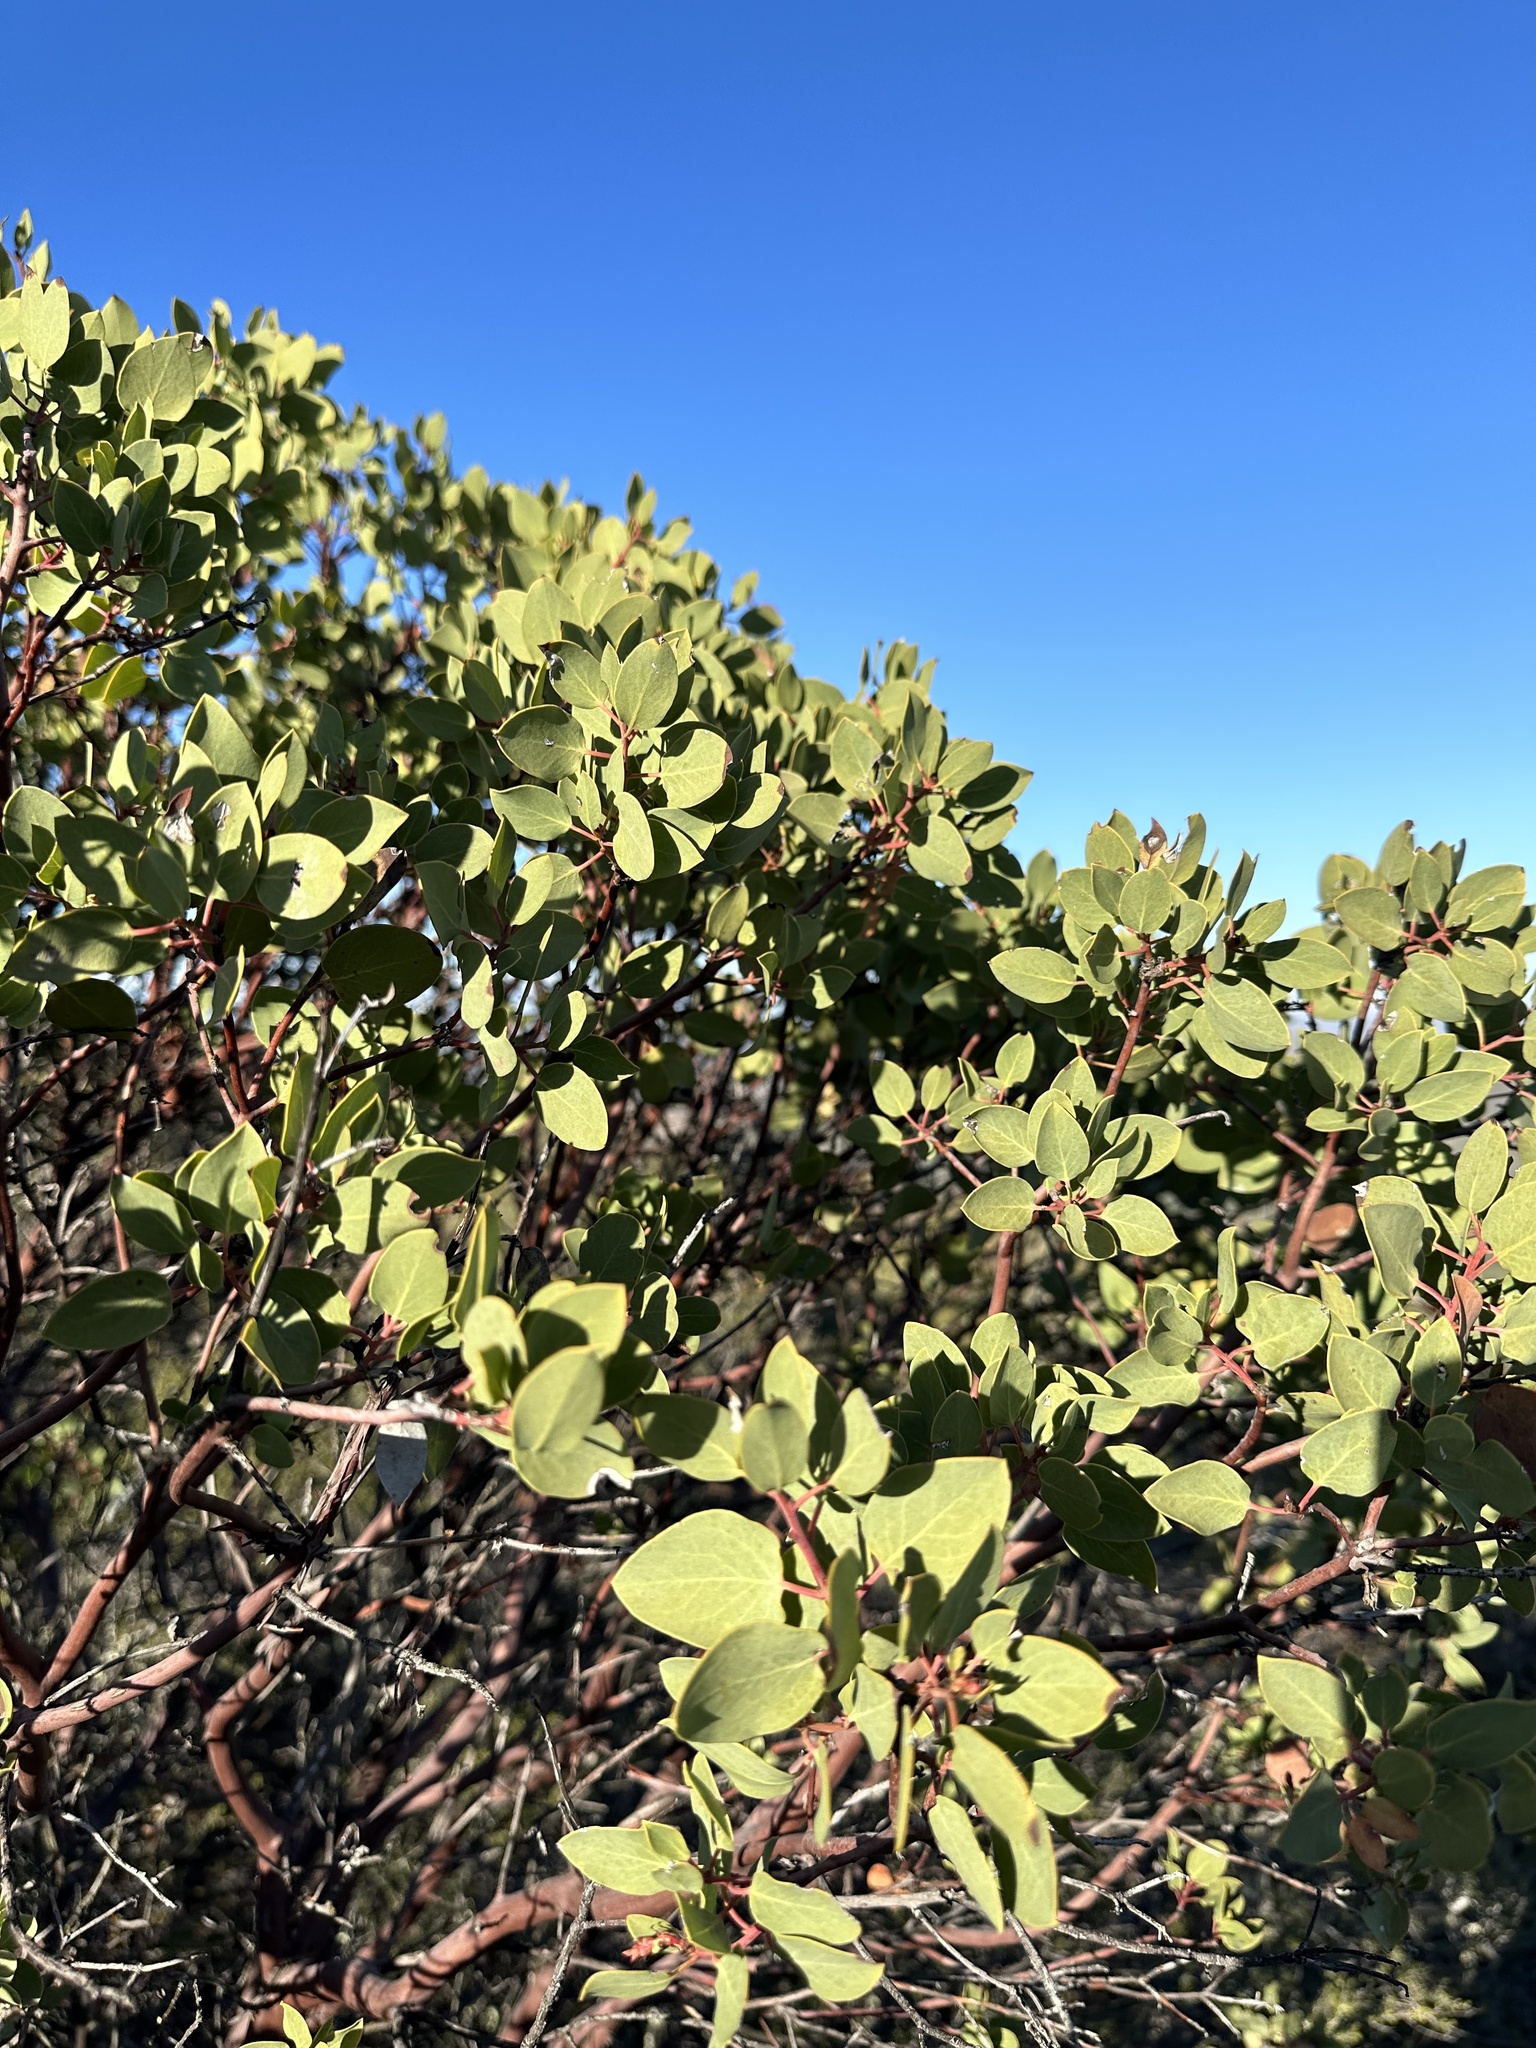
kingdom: Plantae
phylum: Tracheophyta
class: Magnoliopsida
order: Ericales
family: Ericaceae
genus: Arctostaphylos
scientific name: Arctostaphylos glauca
